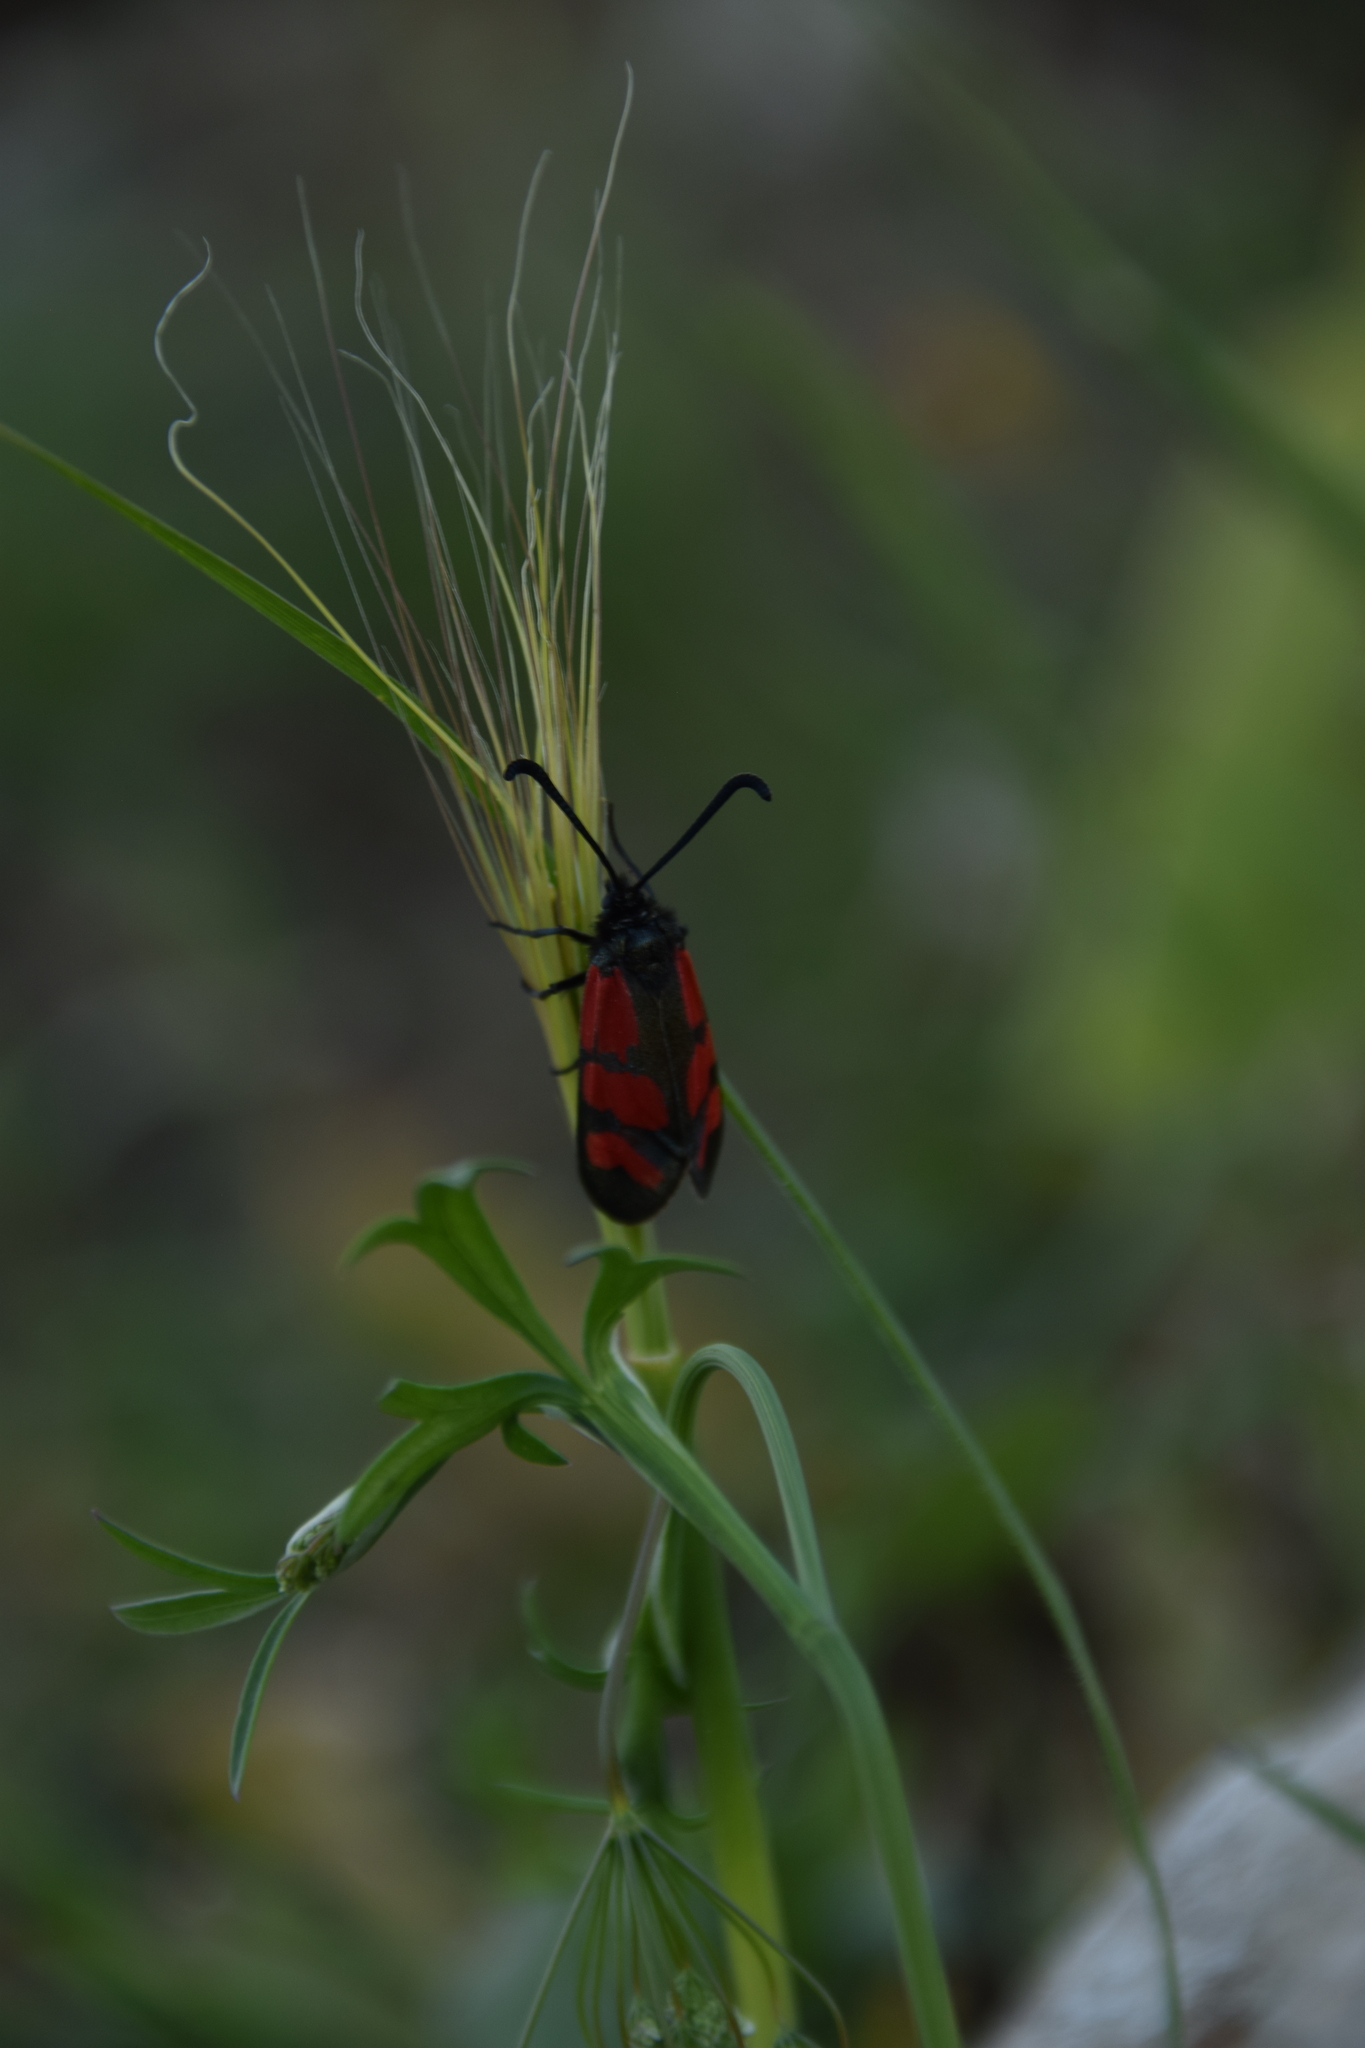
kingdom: Animalia
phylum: Arthropoda
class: Insecta
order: Lepidoptera
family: Zygaenidae
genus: Zygaena
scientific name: Zygaena graslini
